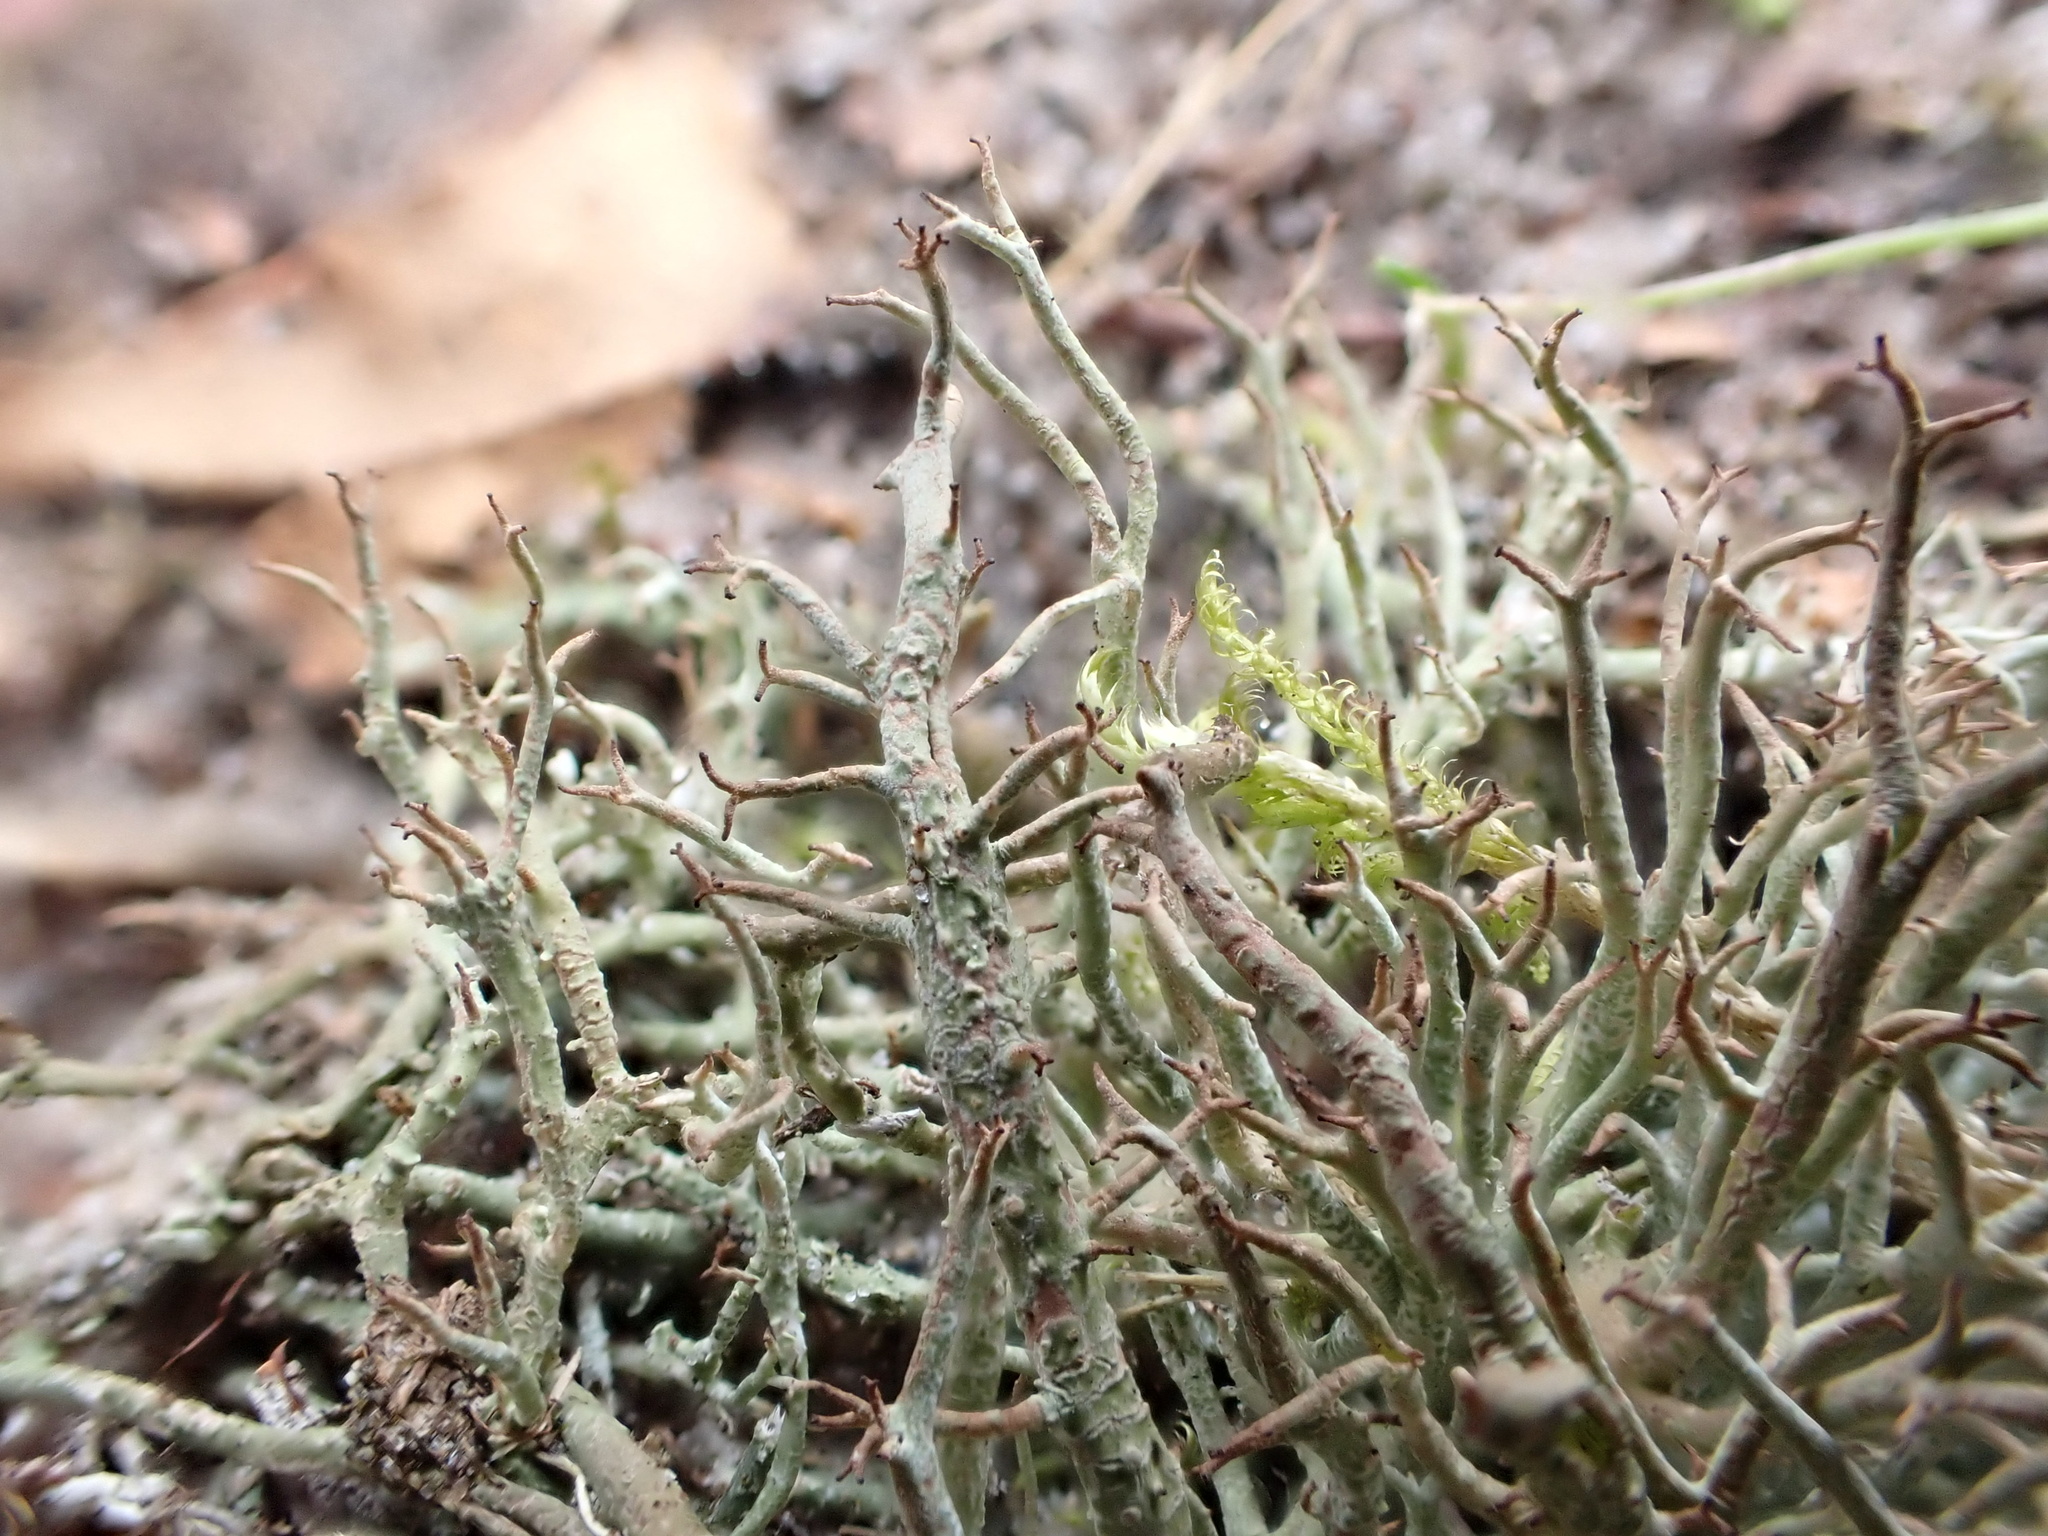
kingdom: Fungi
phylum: Ascomycota
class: Lecanoromycetes
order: Lecanorales
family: Cladoniaceae
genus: Cladonia
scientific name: Cladonia furcata
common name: Many-forked cladonia
